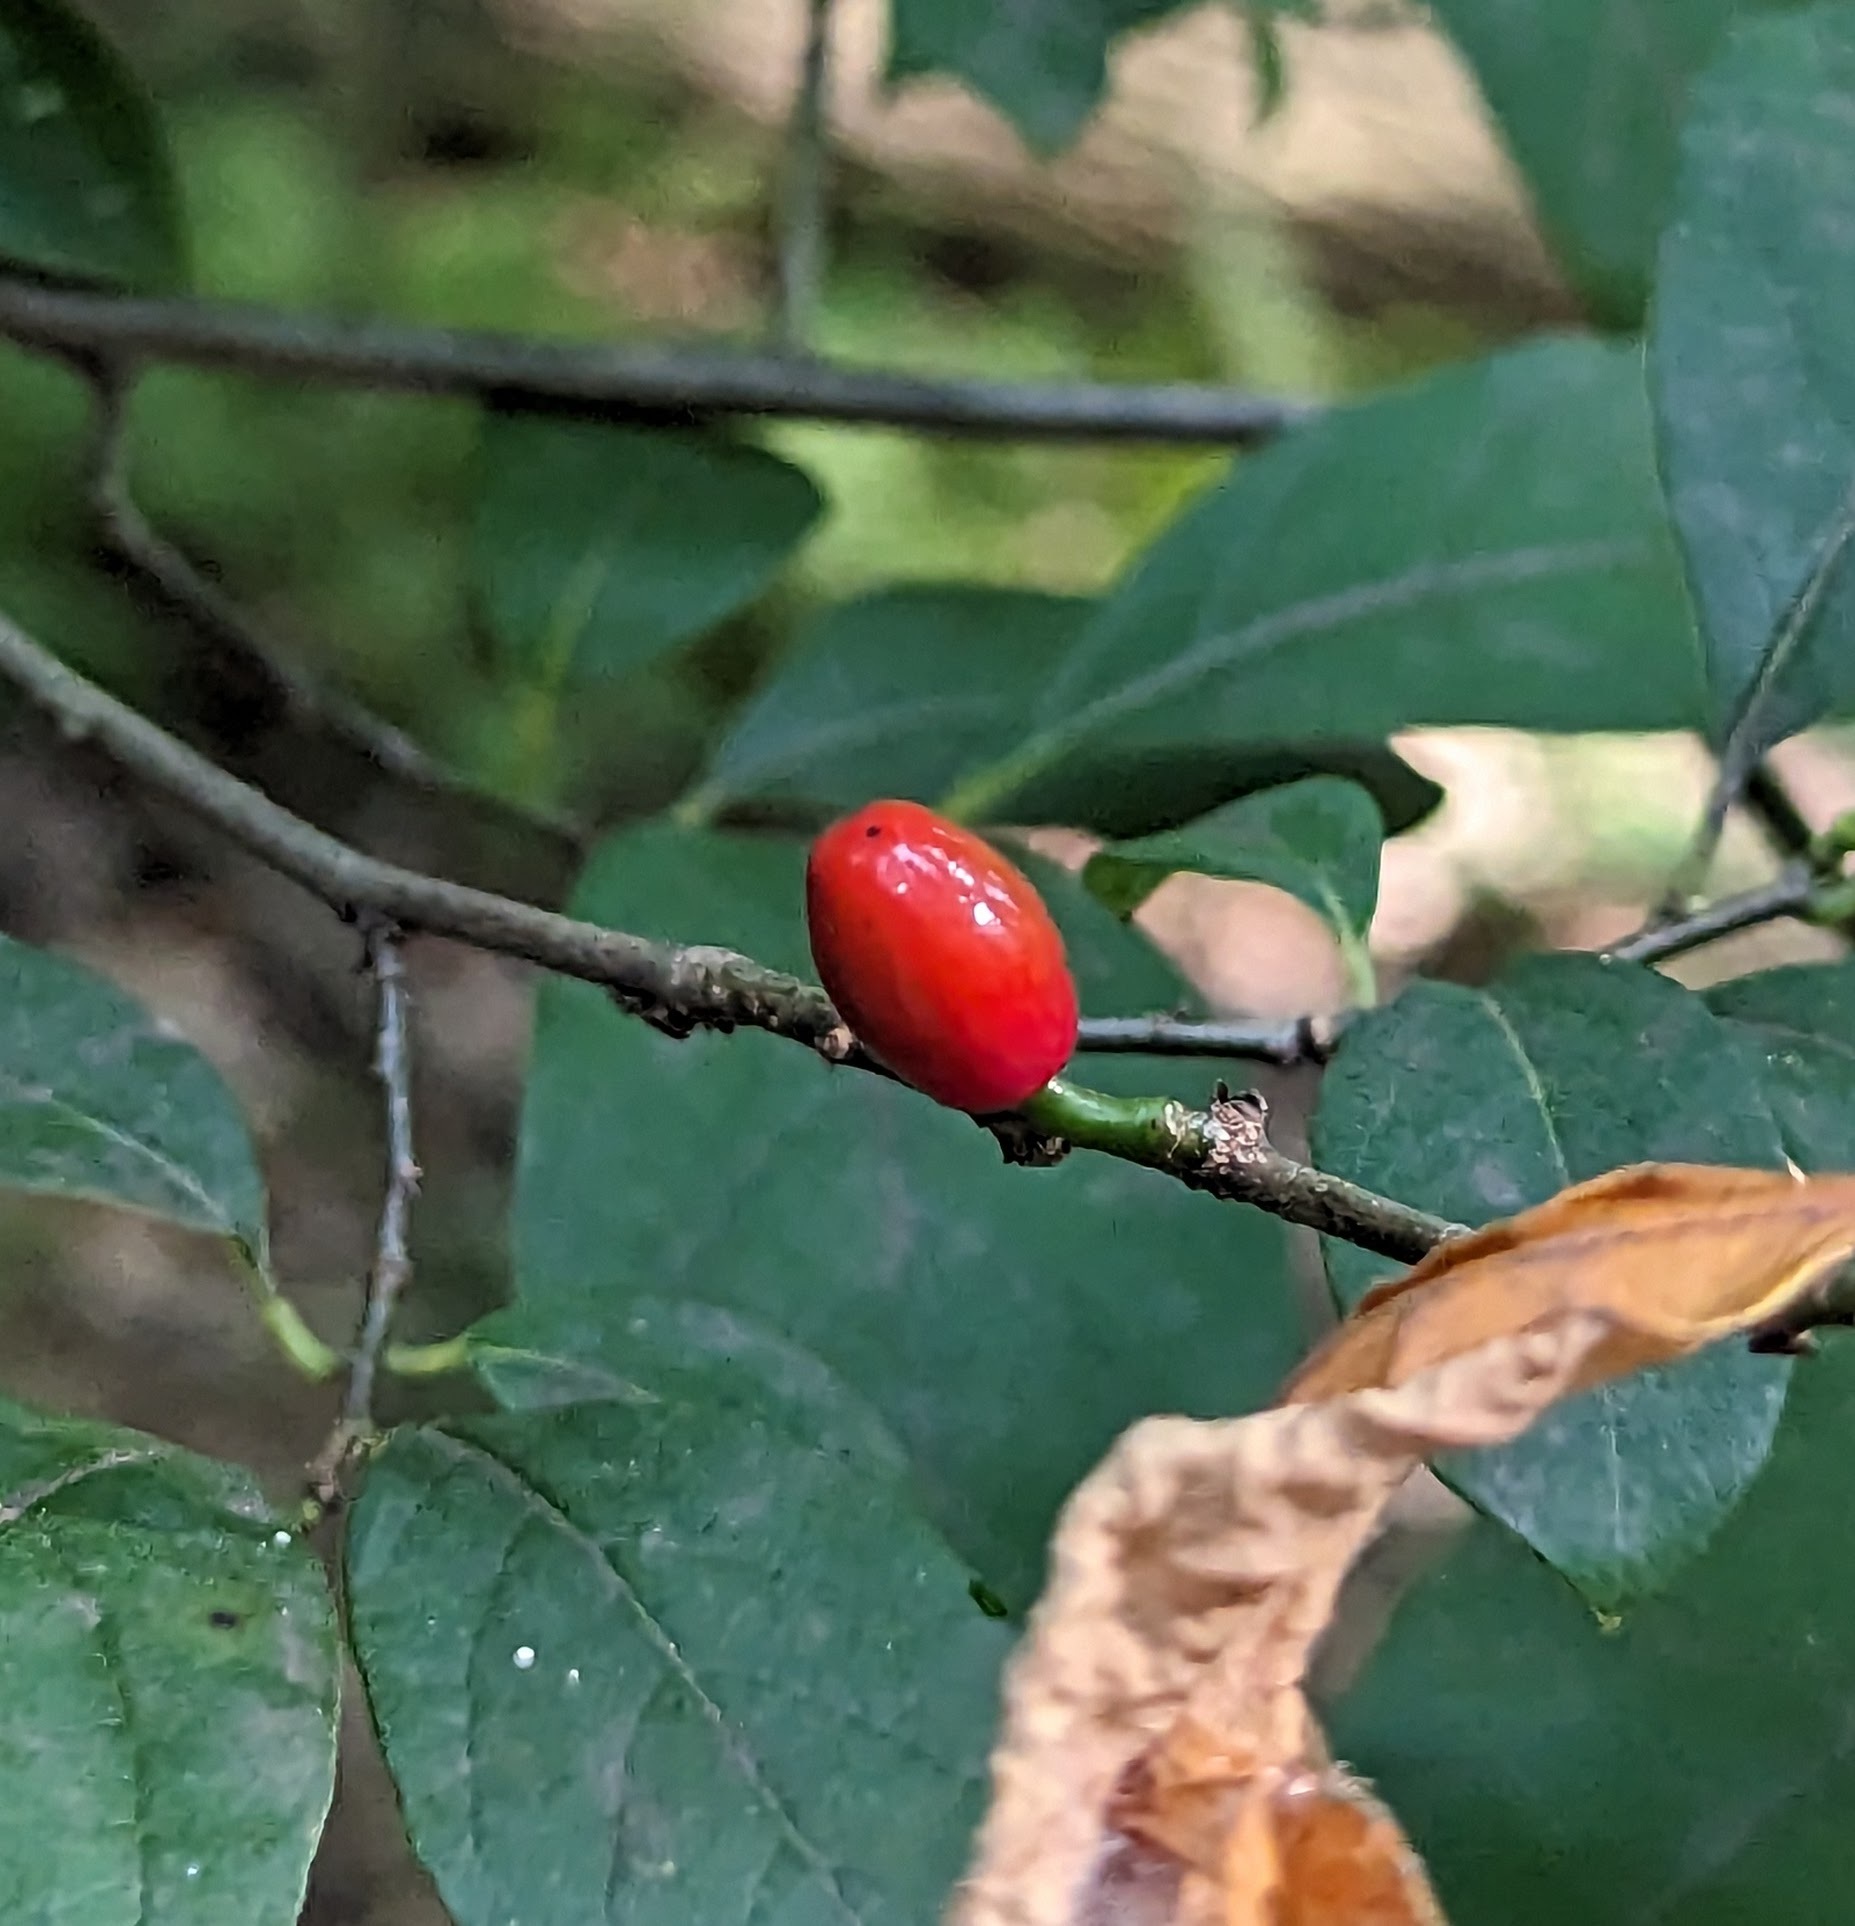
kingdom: Plantae
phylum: Tracheophyta
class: Magnoliopsida
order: Laurales
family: Lauraceae
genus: Lindera
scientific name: Lindera benzoin
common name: Spicebush
